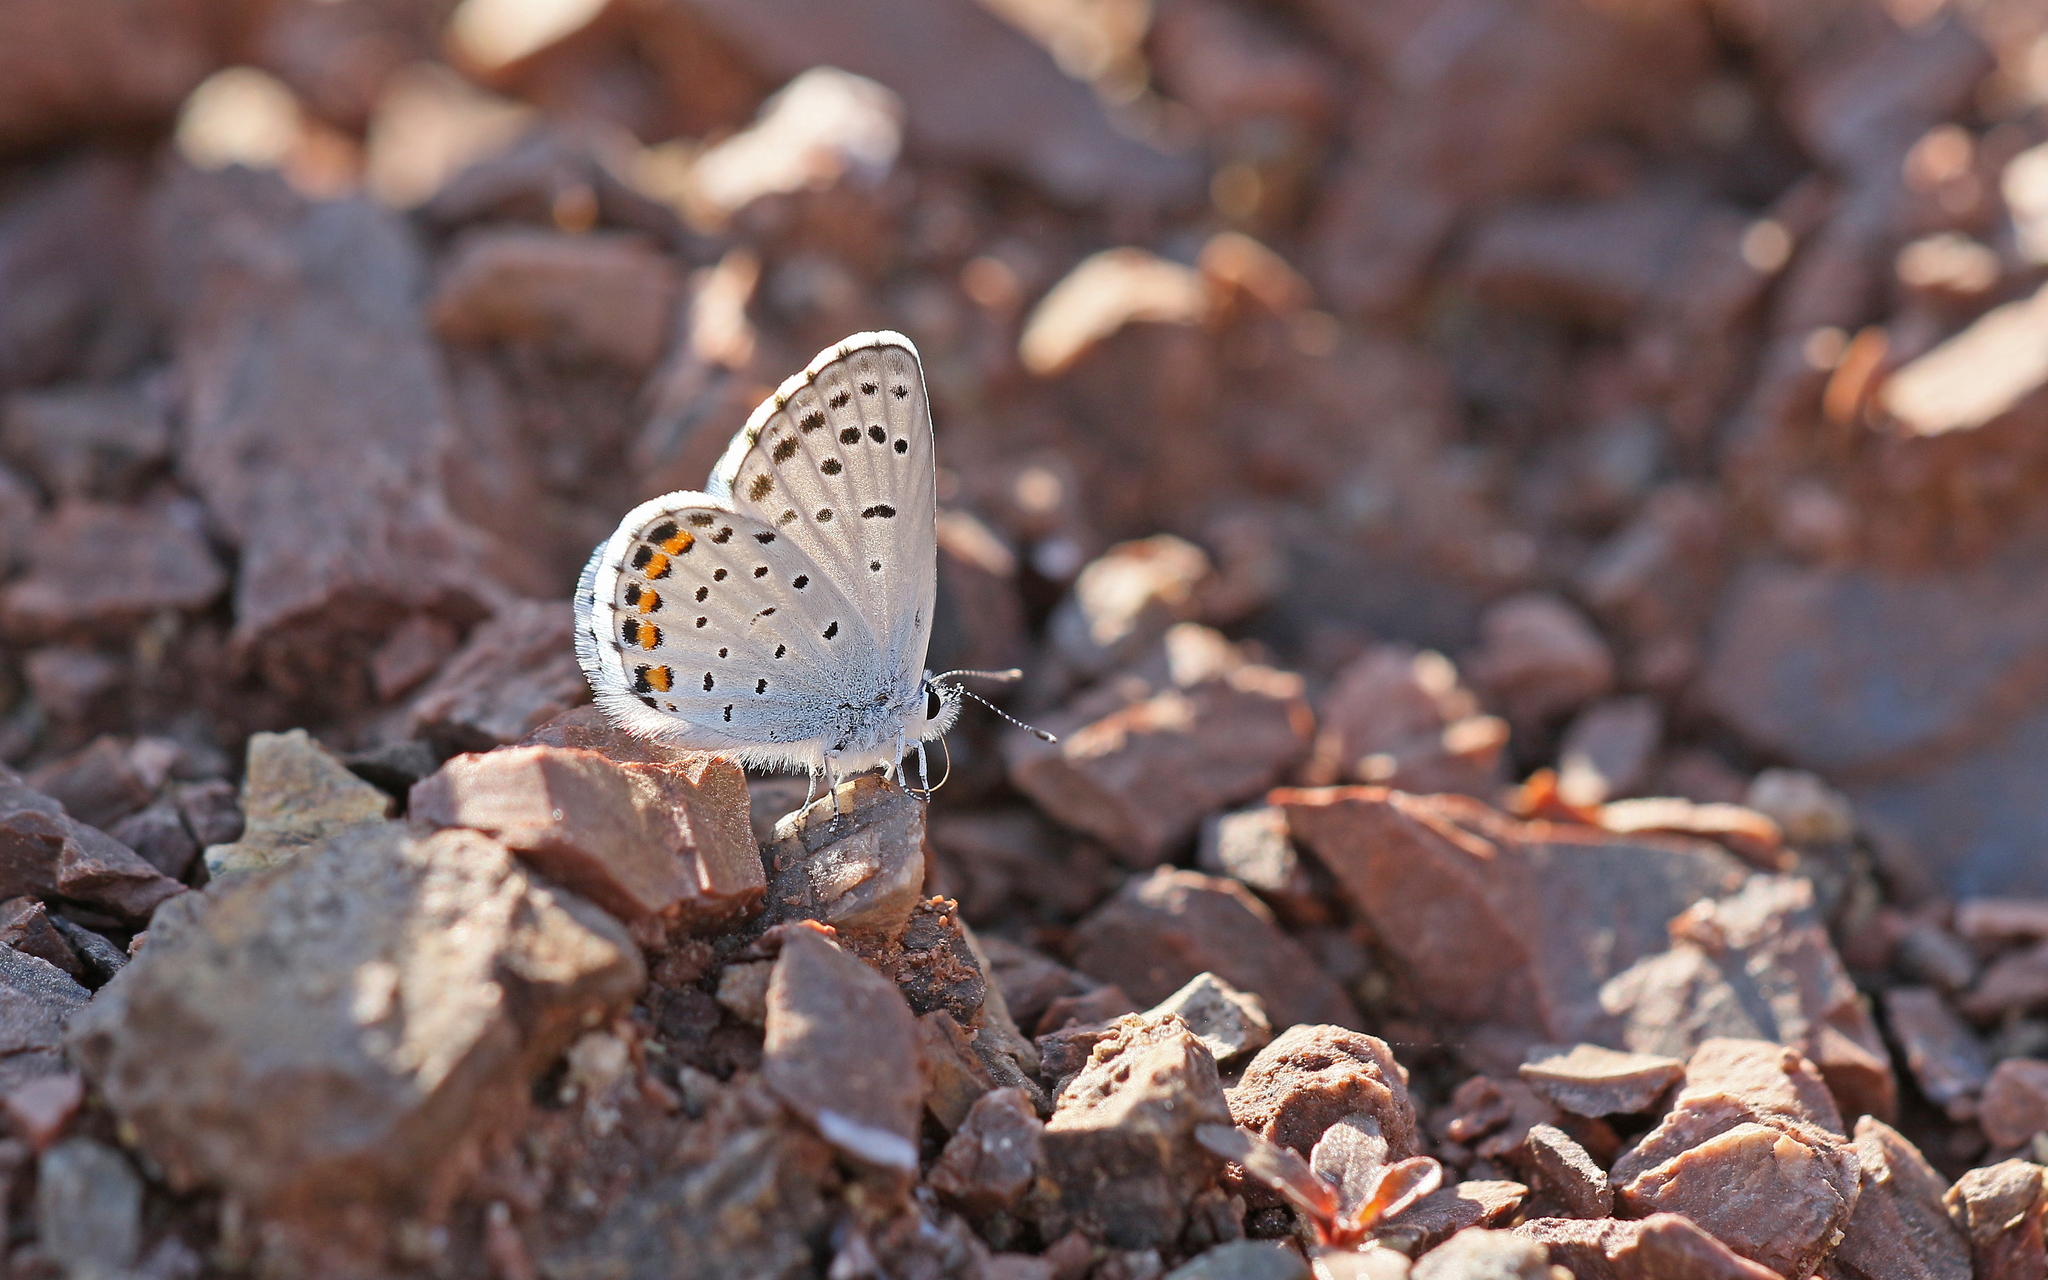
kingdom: Animalia
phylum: Arthropoda
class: Insecta
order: Lepidoptera
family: Lycaenidae
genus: Pseudophilotes
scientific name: Pseudophilotes baton
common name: Baton blue
